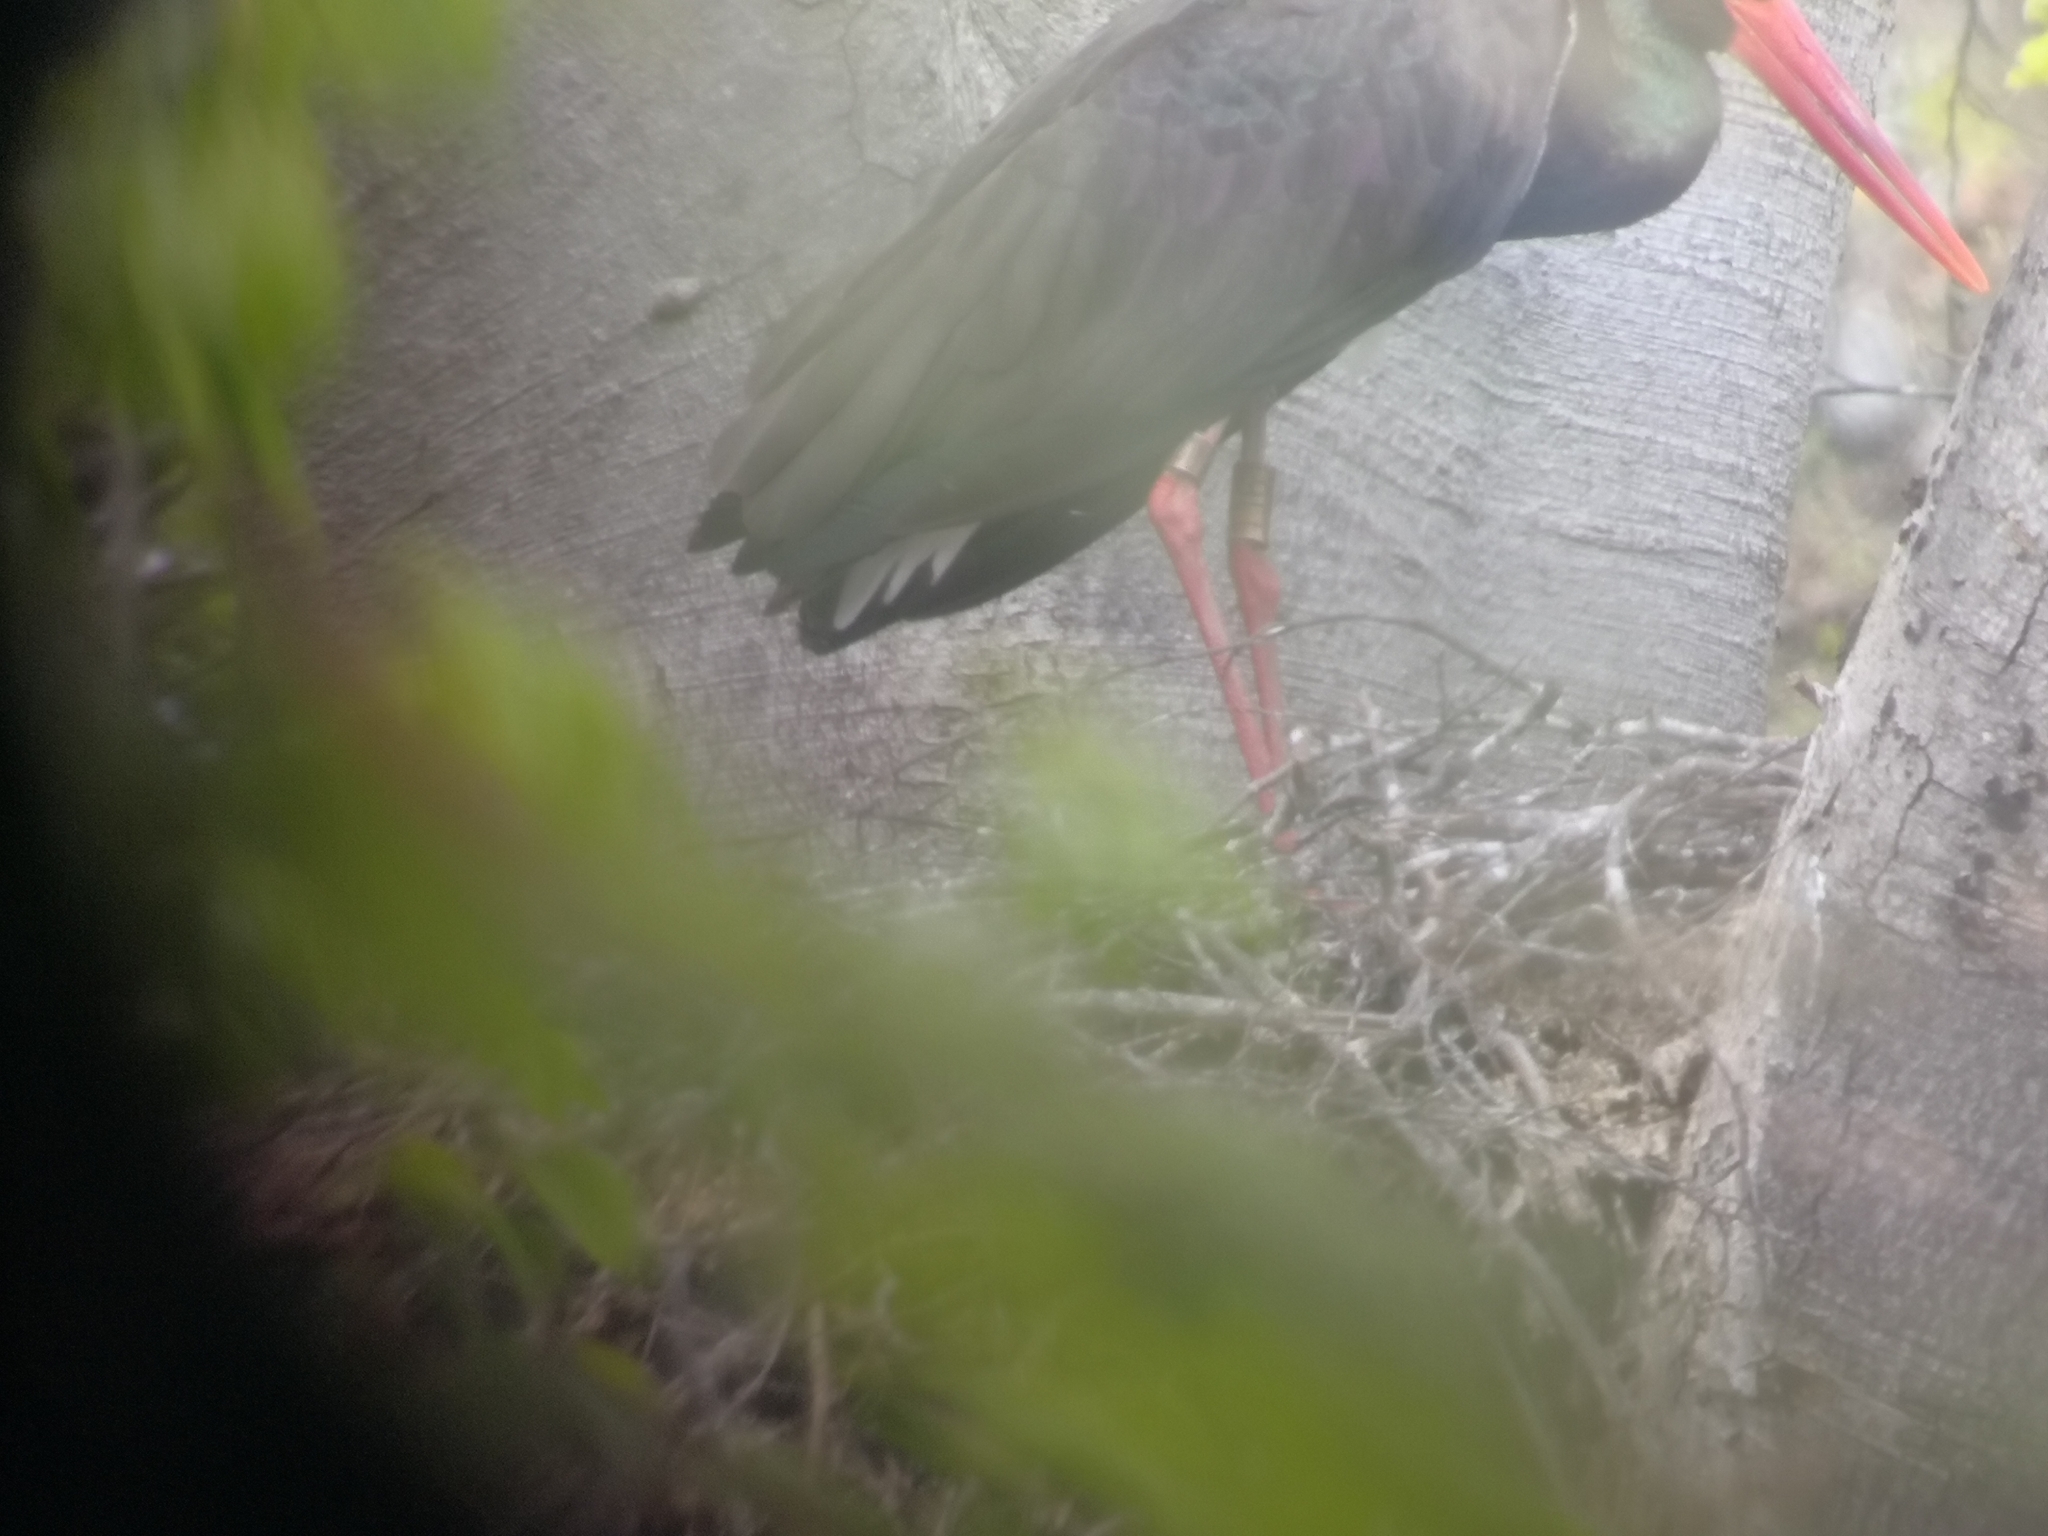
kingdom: Animalia
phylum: Chordata
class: Aves
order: Ciconiiformes
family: Ciconiidae
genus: Ciconia
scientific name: Ciconia nigra
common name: Black stork
